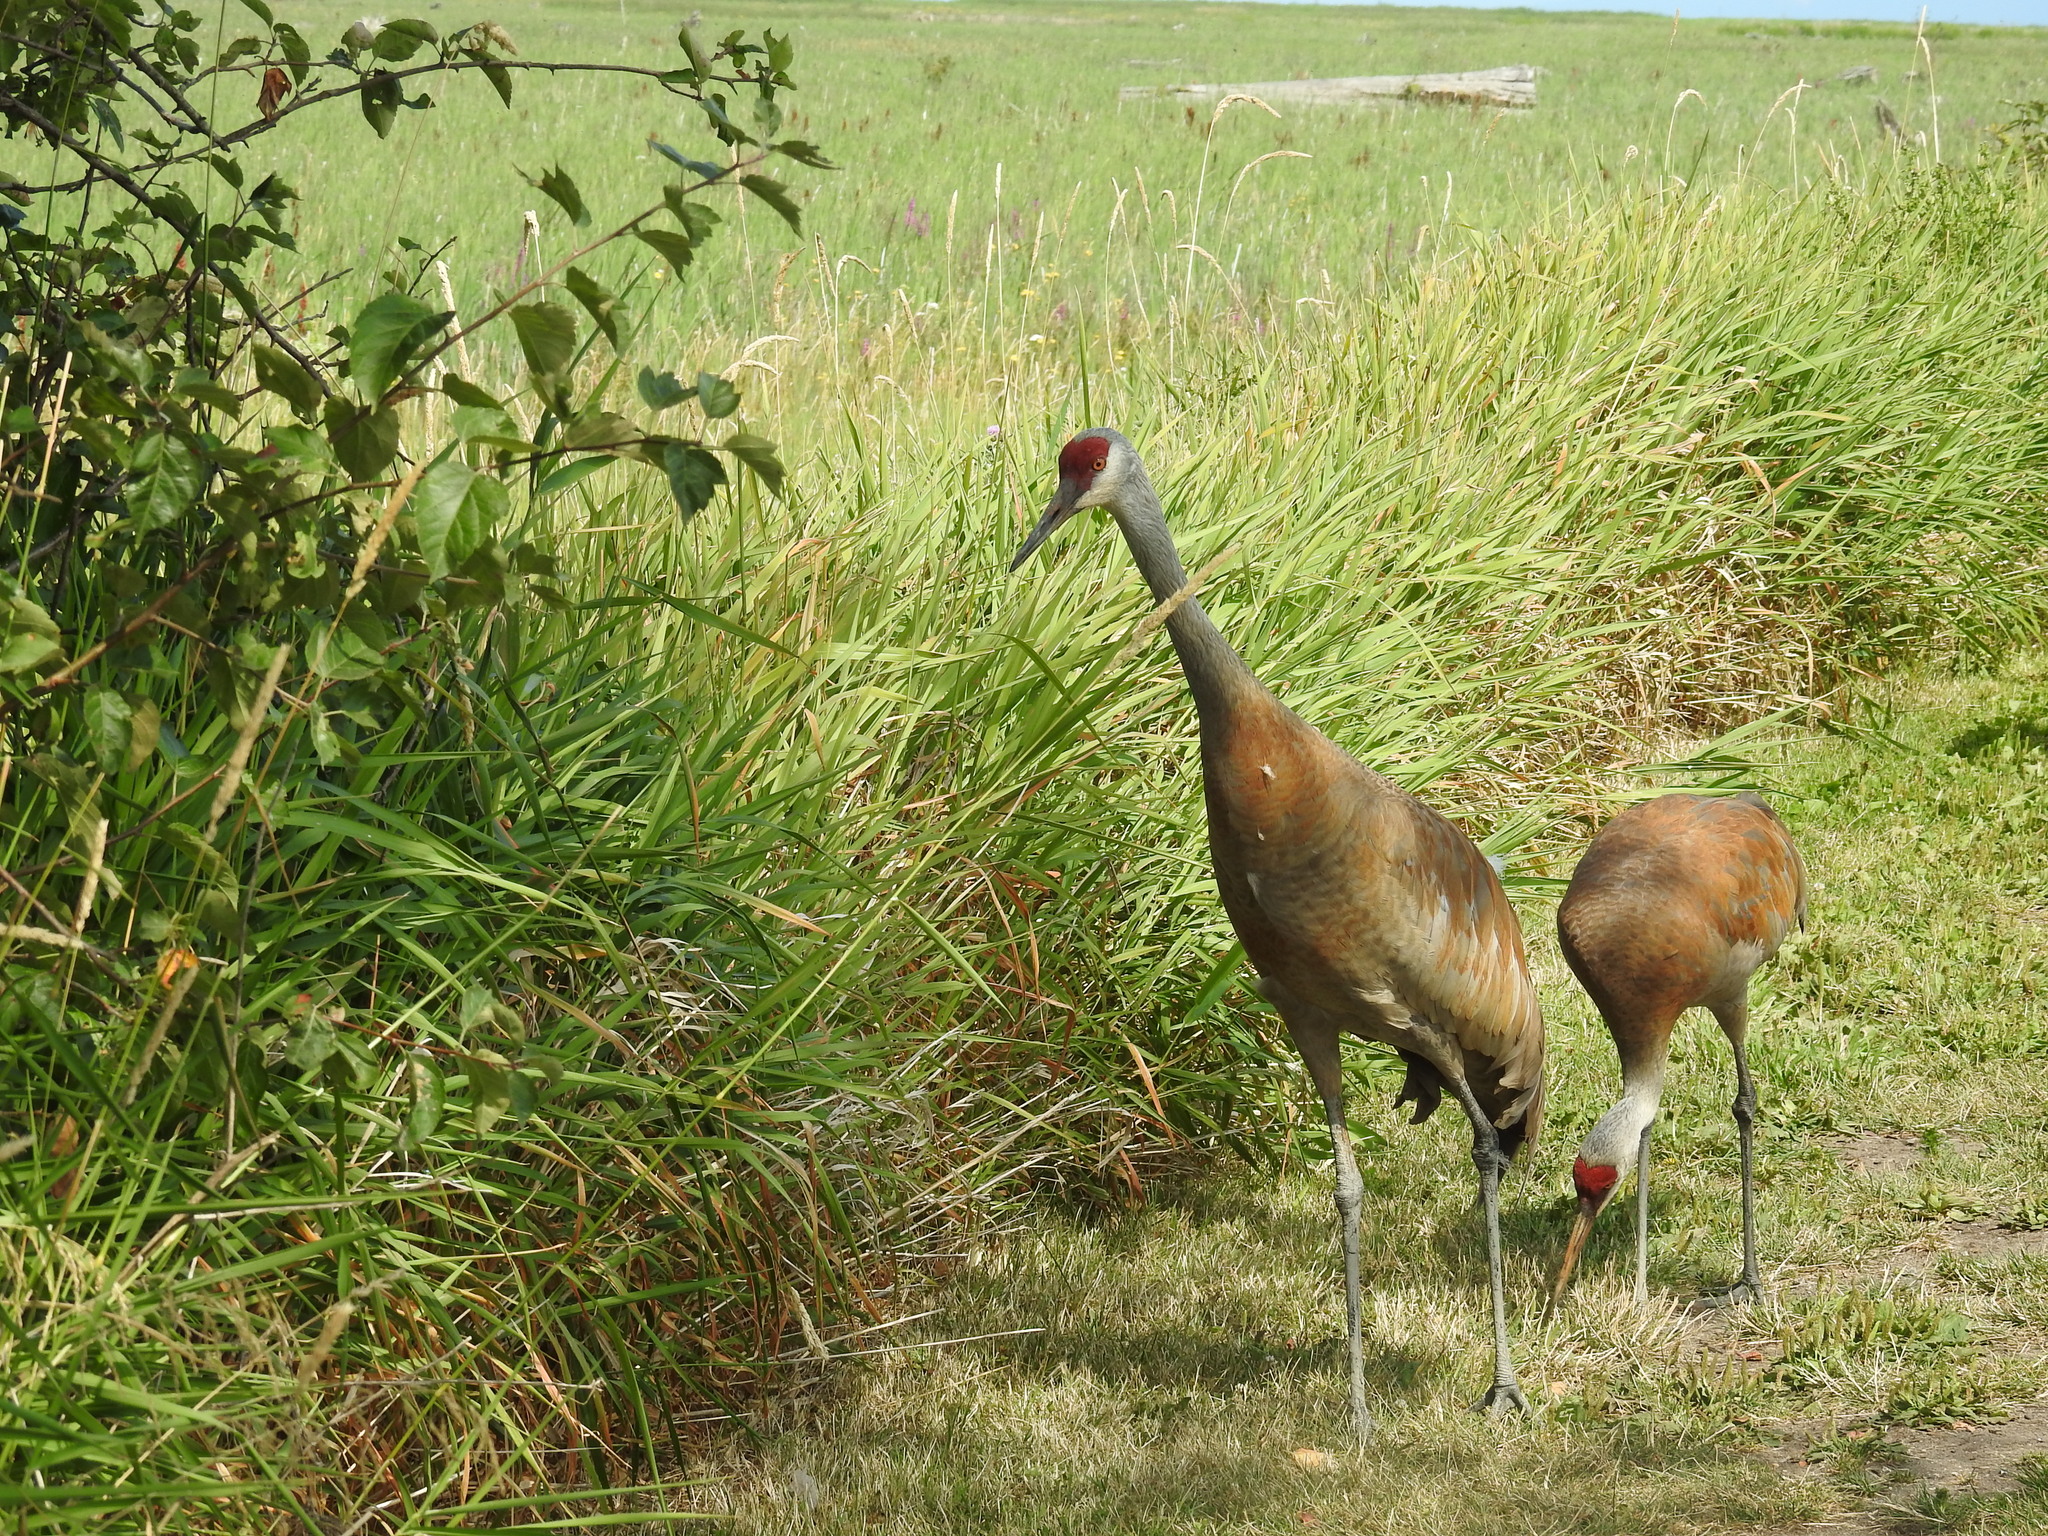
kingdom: Animalia
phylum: Chordata
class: Aves
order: Gruiformes
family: Gruidae
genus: Grus
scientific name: Grus canadensis
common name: Sandhill crane
